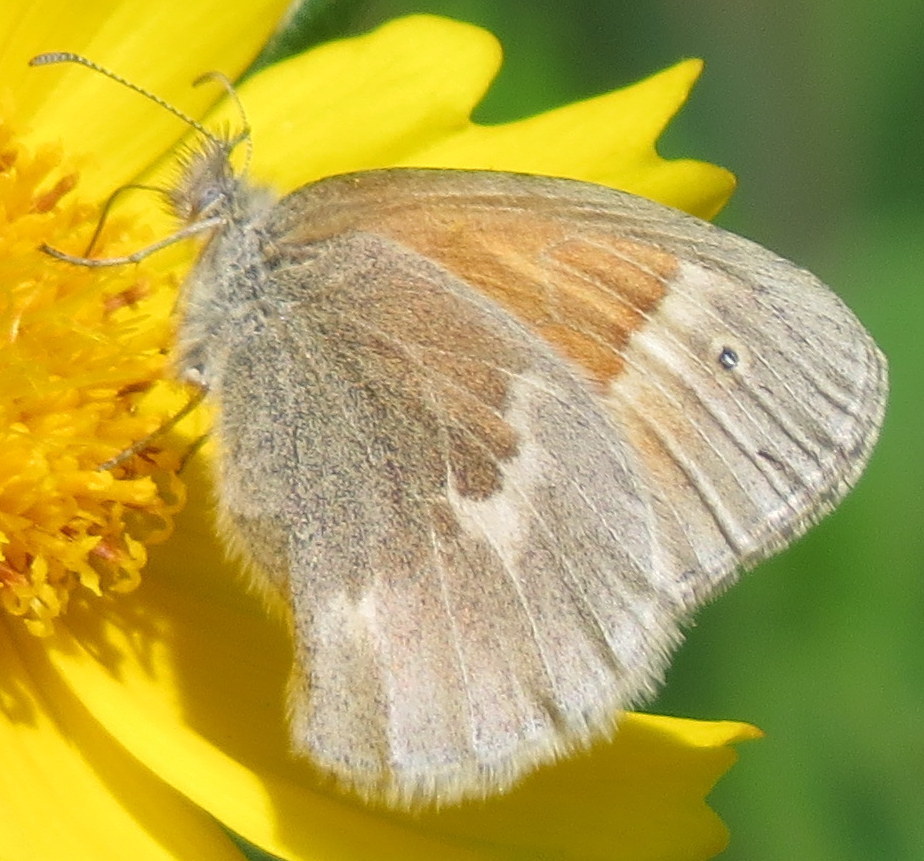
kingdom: Animalia
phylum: Arthropoda
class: Insecta
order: Lepidoptera
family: Nymphalidae
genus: Coenonympha
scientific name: Coenonympha california
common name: Common ringlet
